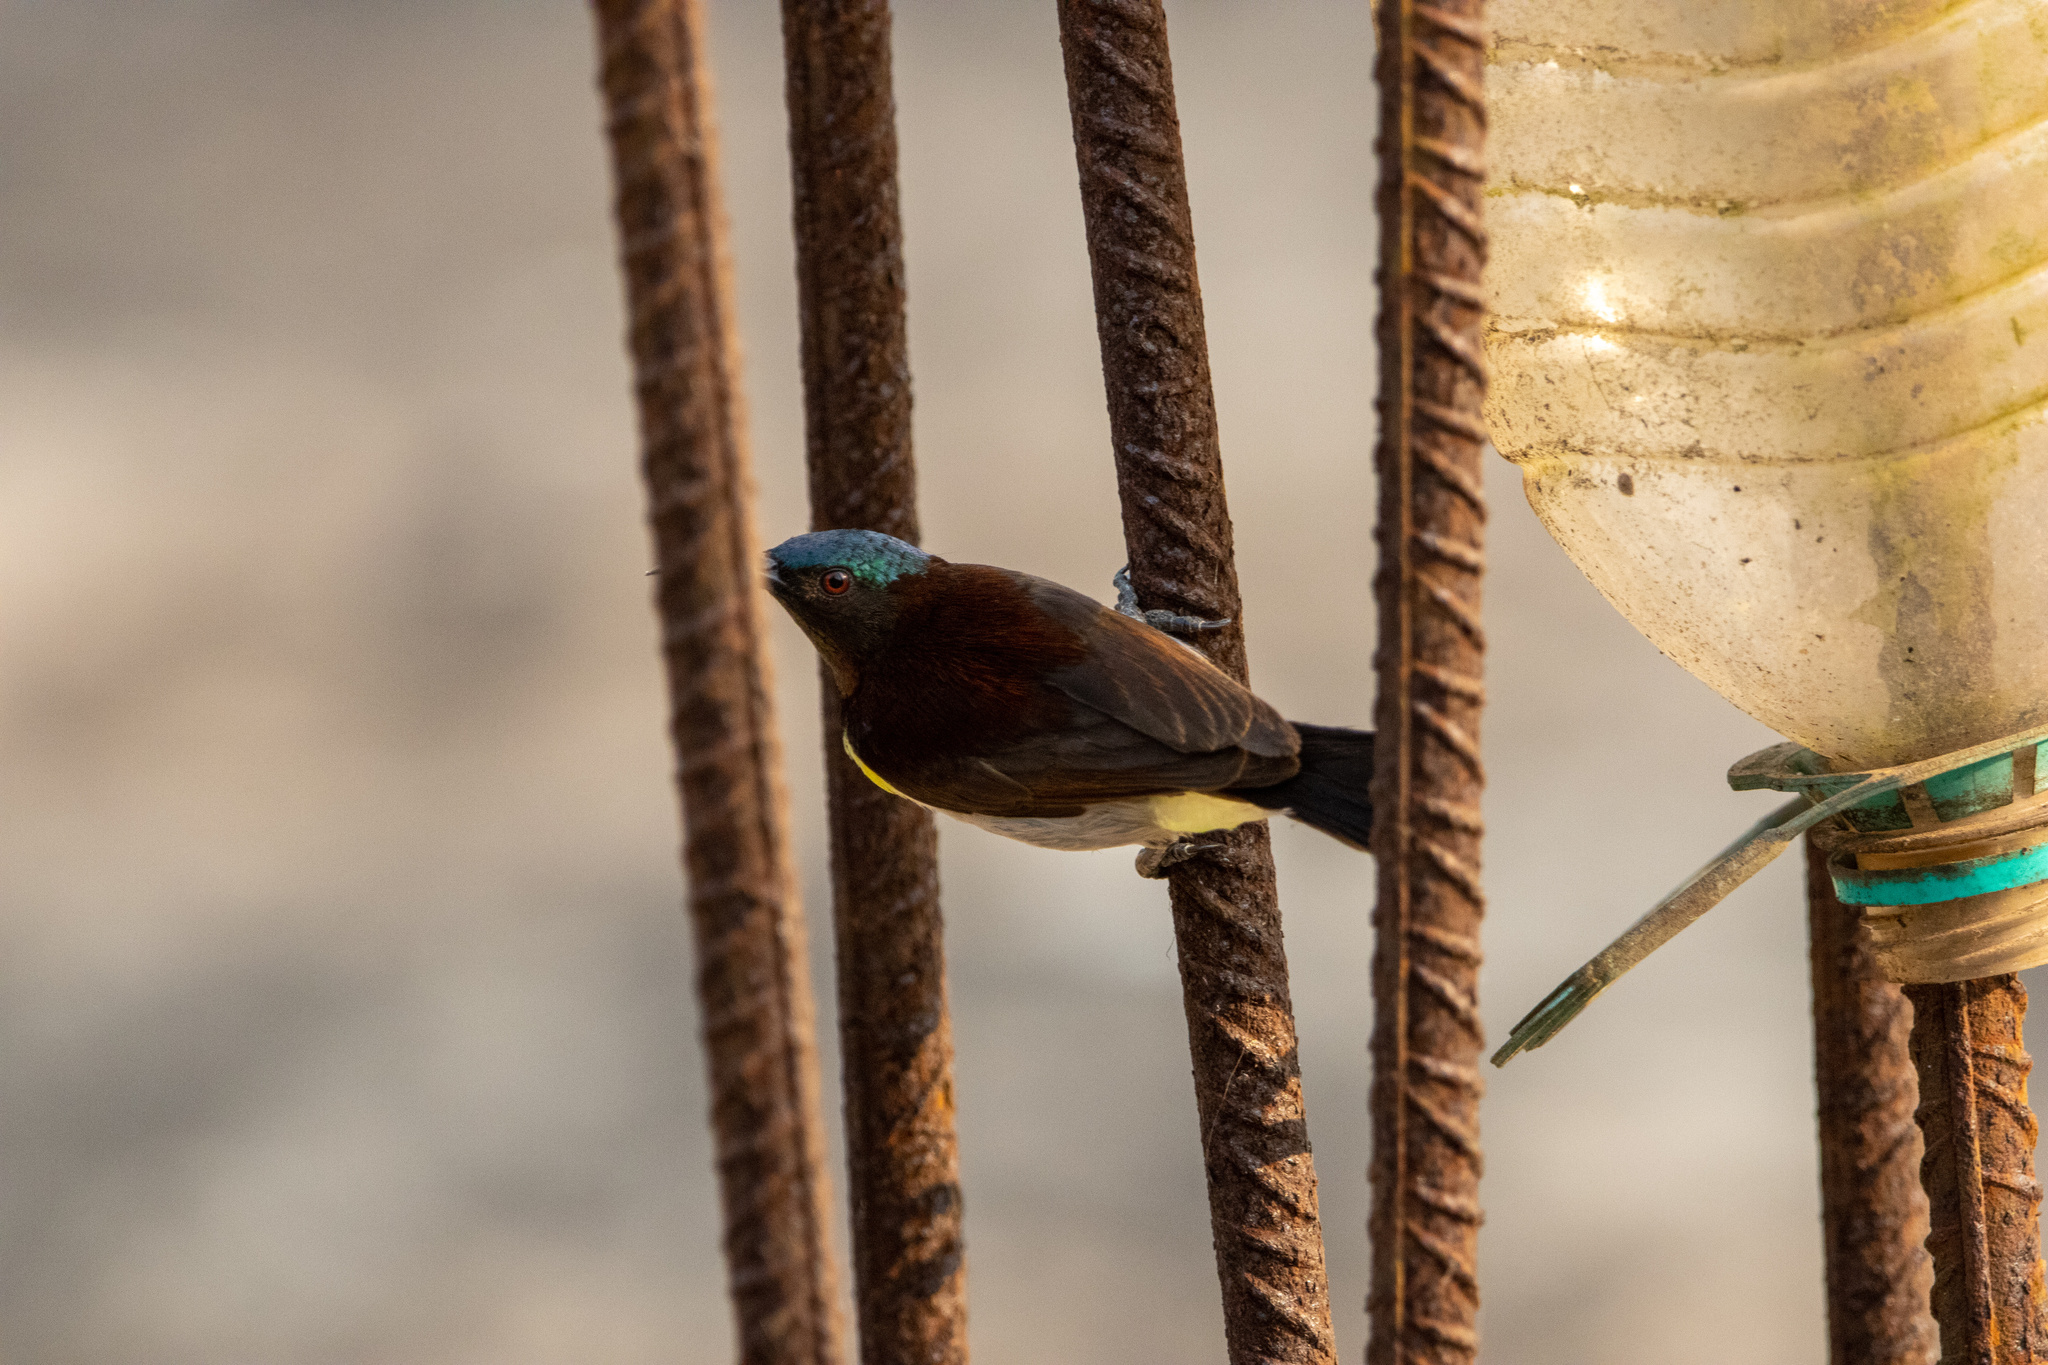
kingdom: Animalia
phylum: Chordata
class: Aves
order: Passeriformes
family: Nectariniidae
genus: Leptocoma
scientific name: Leptocoma zeylonica
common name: Purple-rumped sunbird
